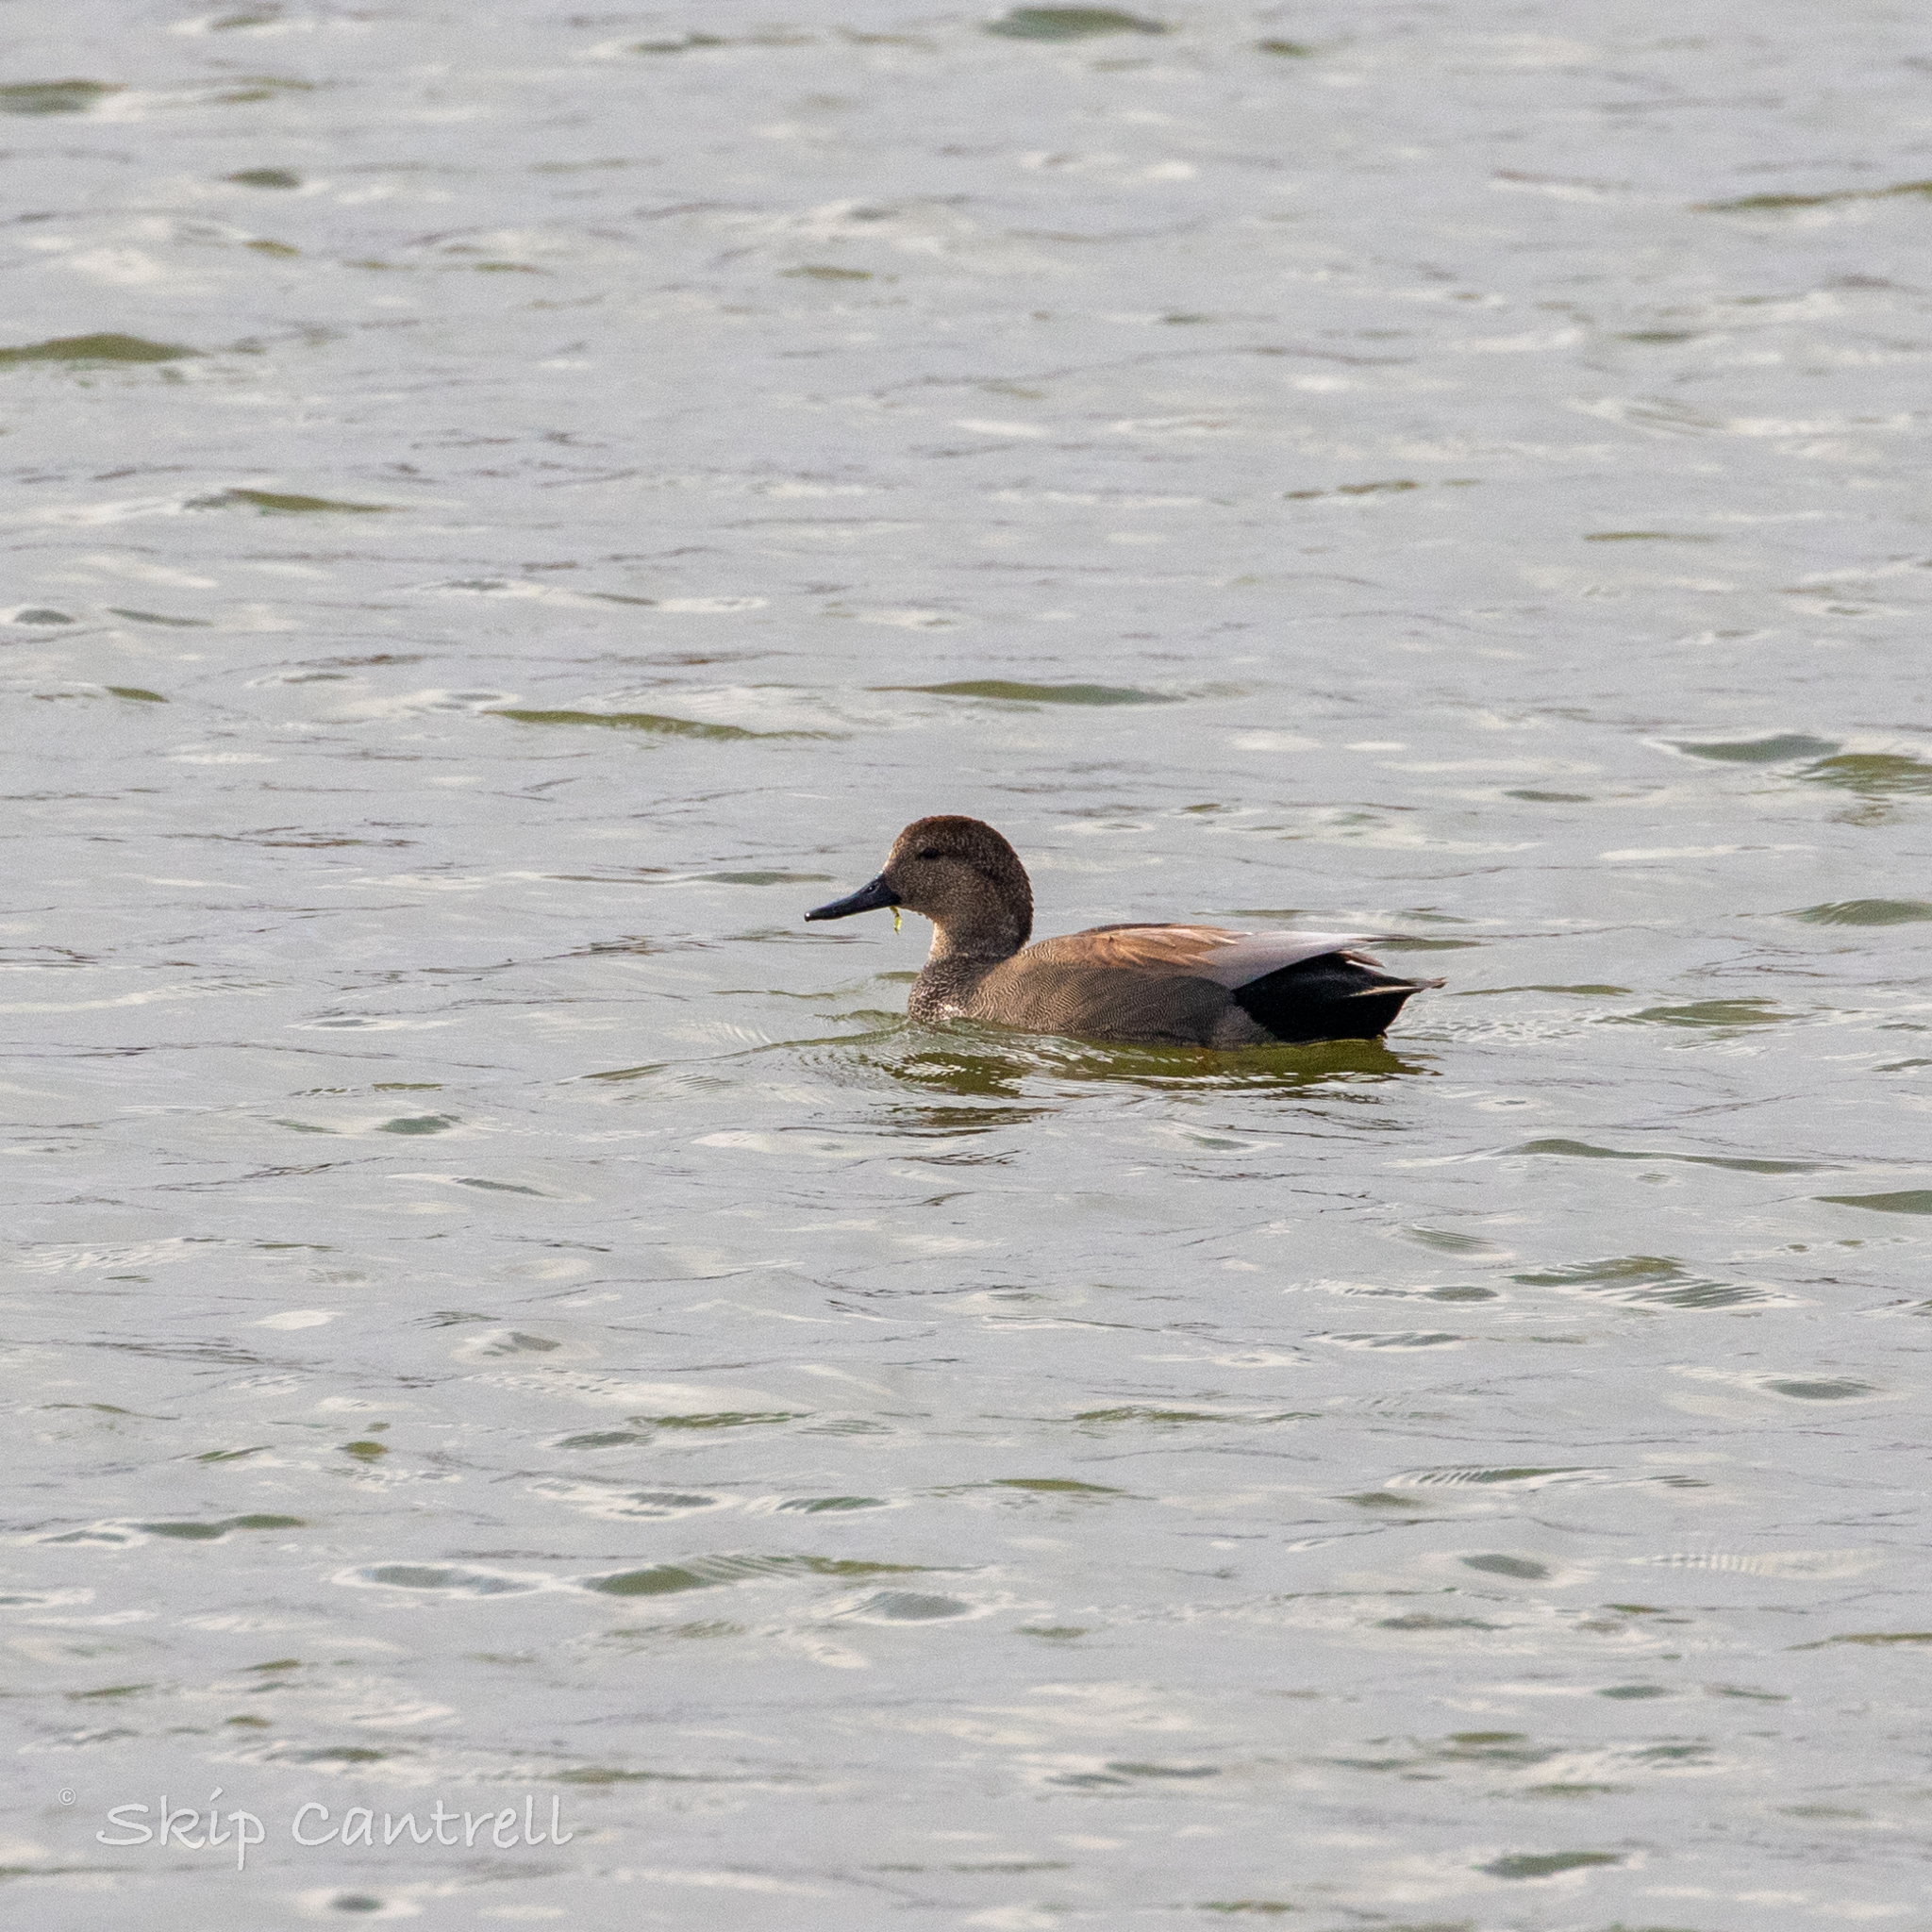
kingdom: Animalia
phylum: Chordata
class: Aves
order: Anseriformes
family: Anatidae
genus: Mareca
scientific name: Mareca strepera
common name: Gadwall
